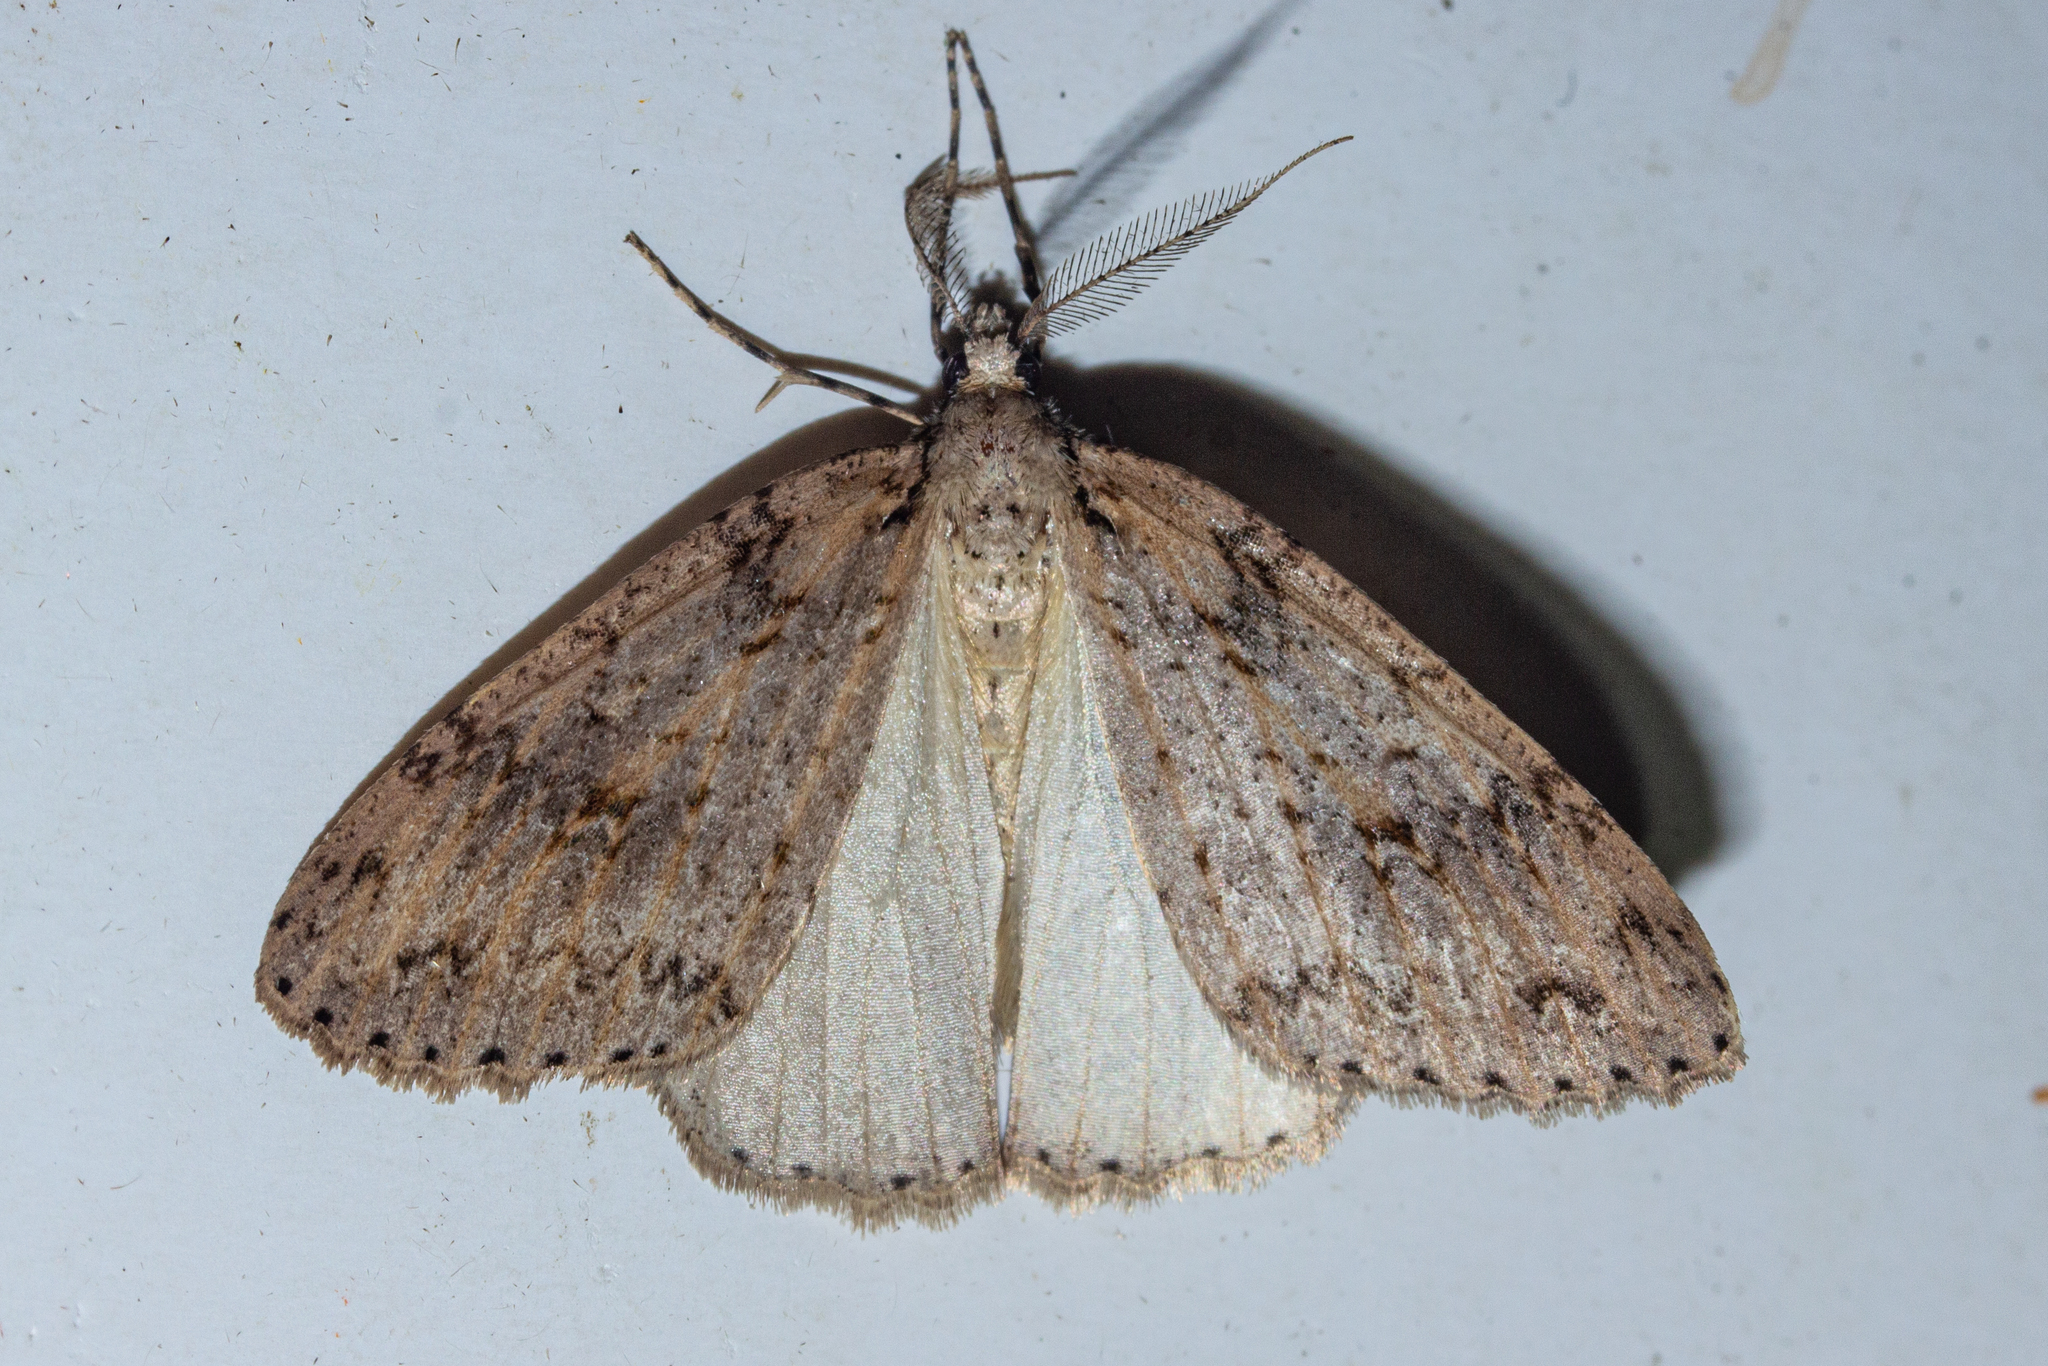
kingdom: Animalia
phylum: Arthropoda
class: Insecta
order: Lepidoptera
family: Geometridae
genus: Pseudocoremia
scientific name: Pseudocoremia rudisata
